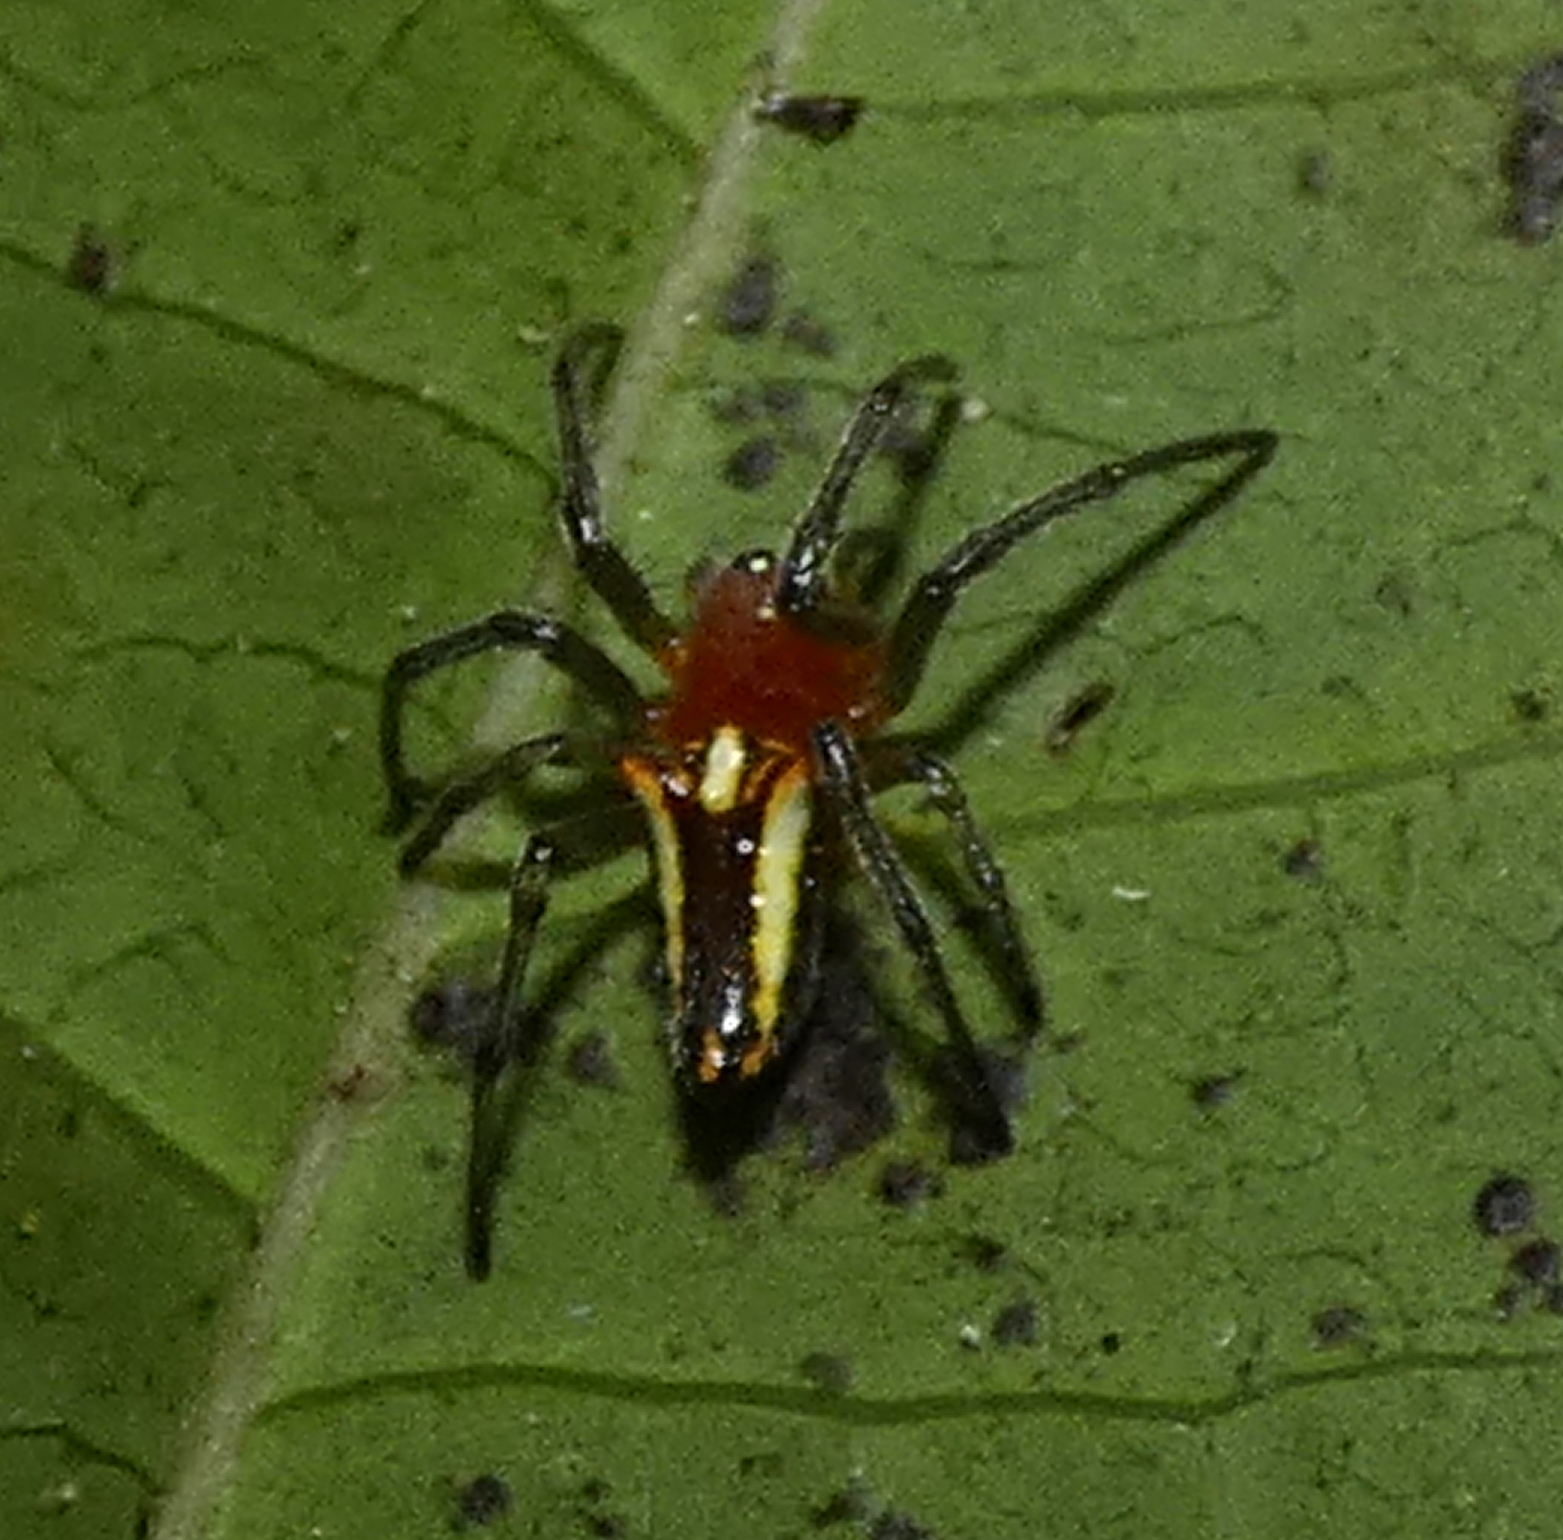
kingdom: Animalia
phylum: Arthropoda
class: Arachnida
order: Araneae
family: Araneidae
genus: Alpaida
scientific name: Alpaida bicornuta
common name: Orb weavers
